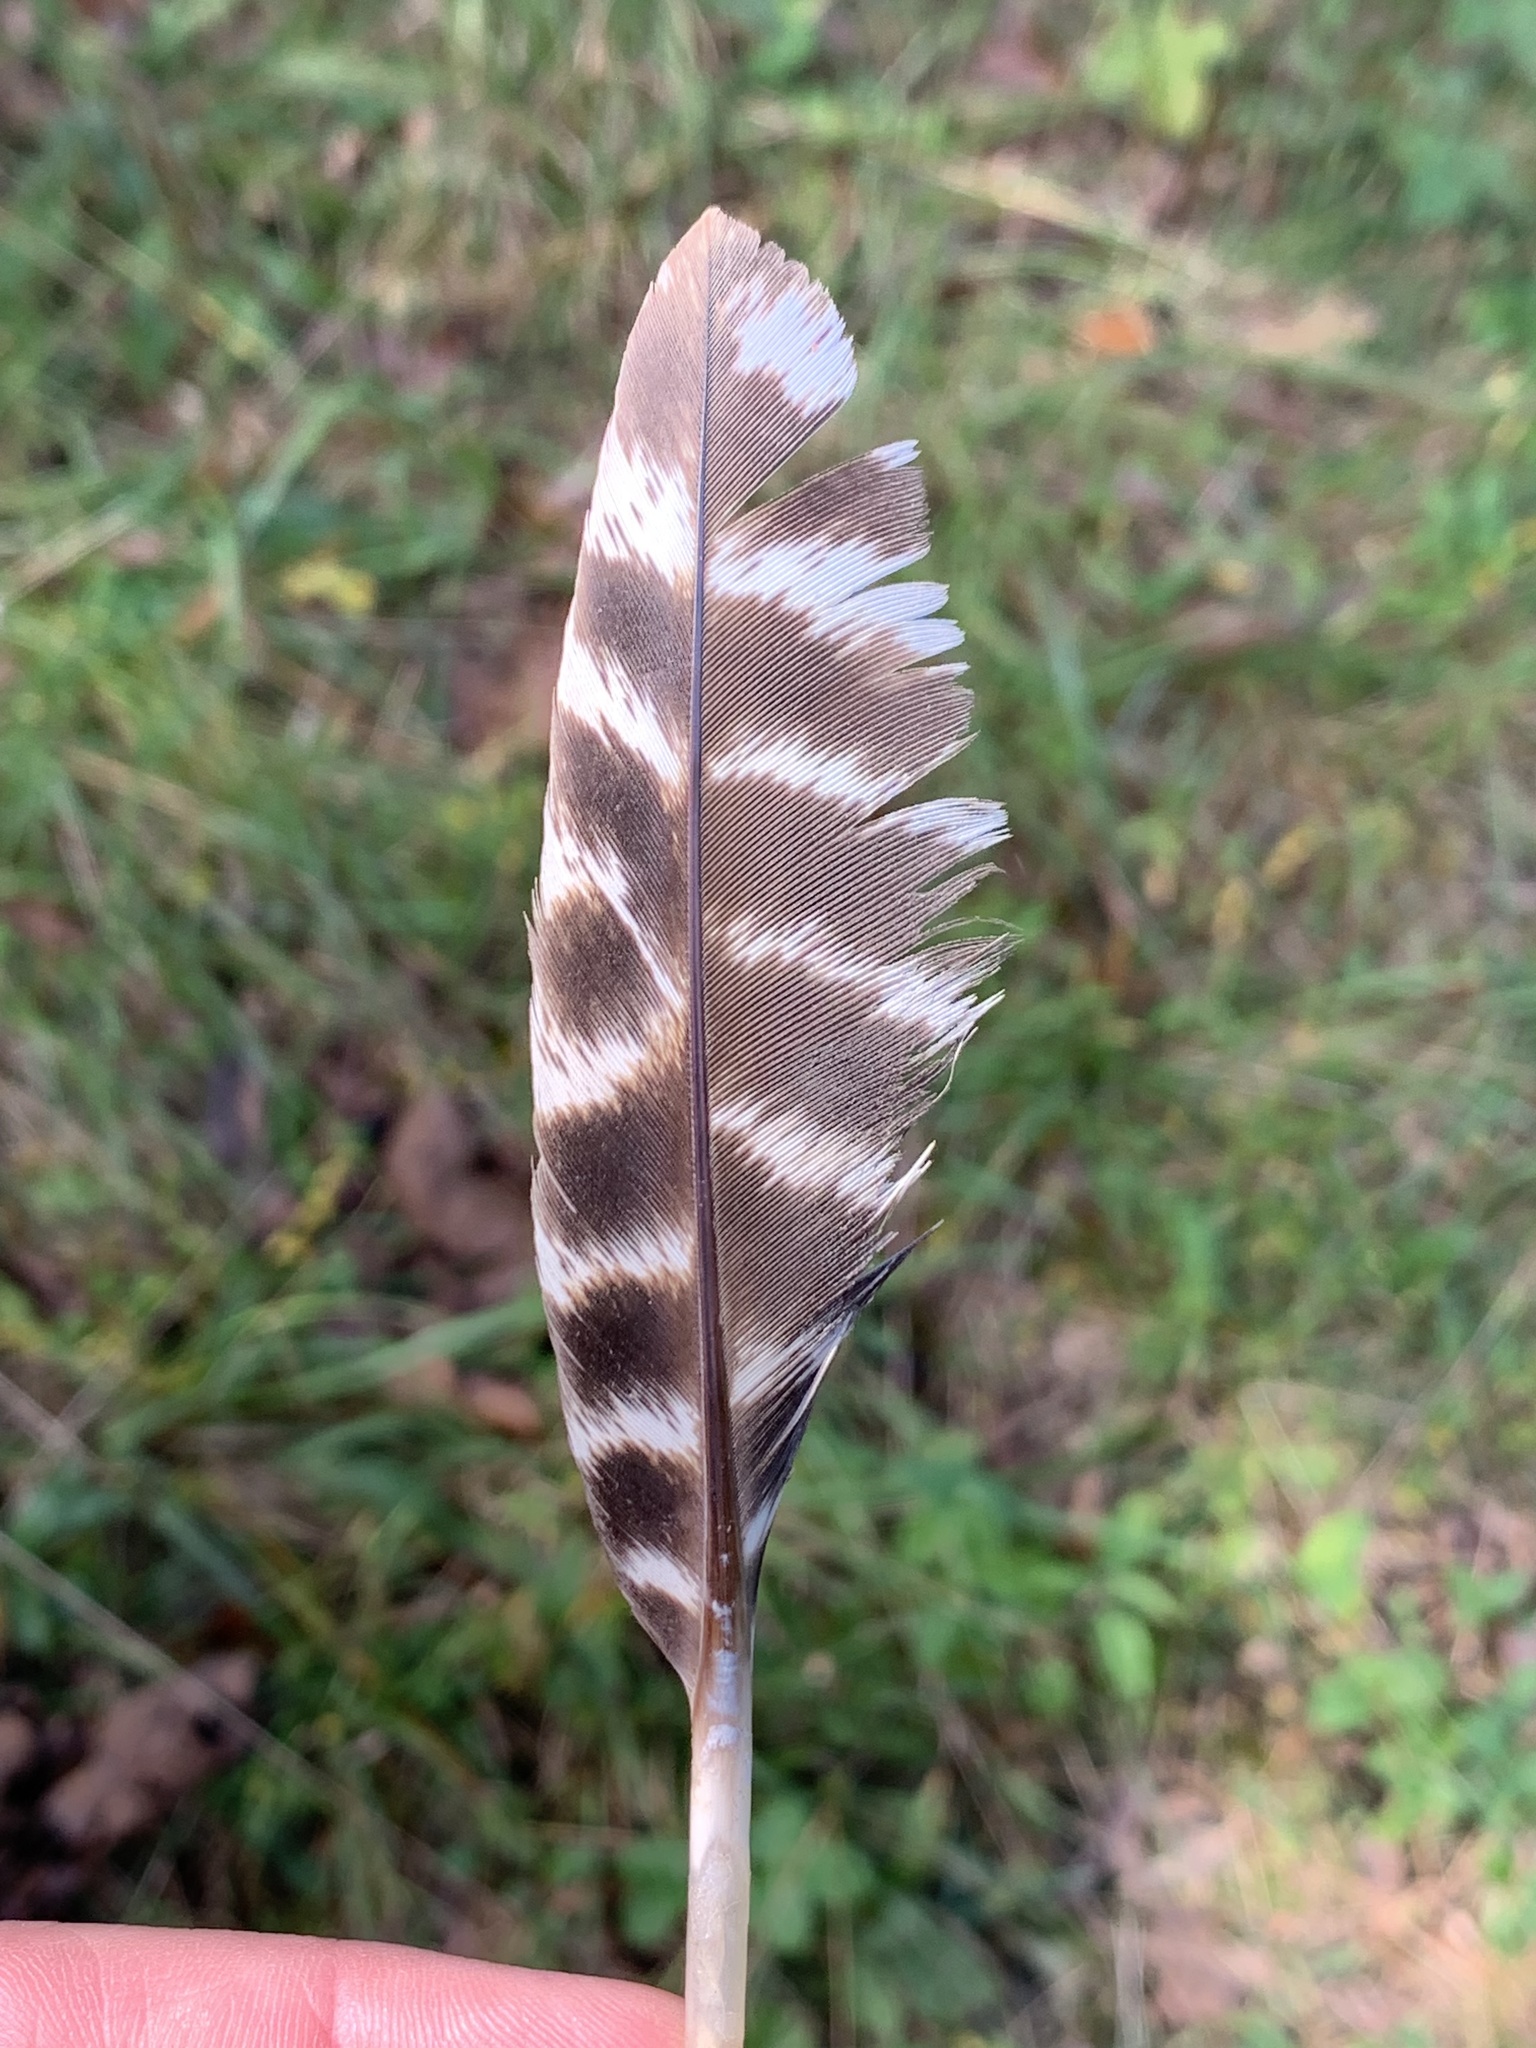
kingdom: Animalia
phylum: Chordata
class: Aves
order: Galliformes
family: Phasianidae
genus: Meleagris
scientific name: Meleagris gallopavo
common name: Wild turkey
